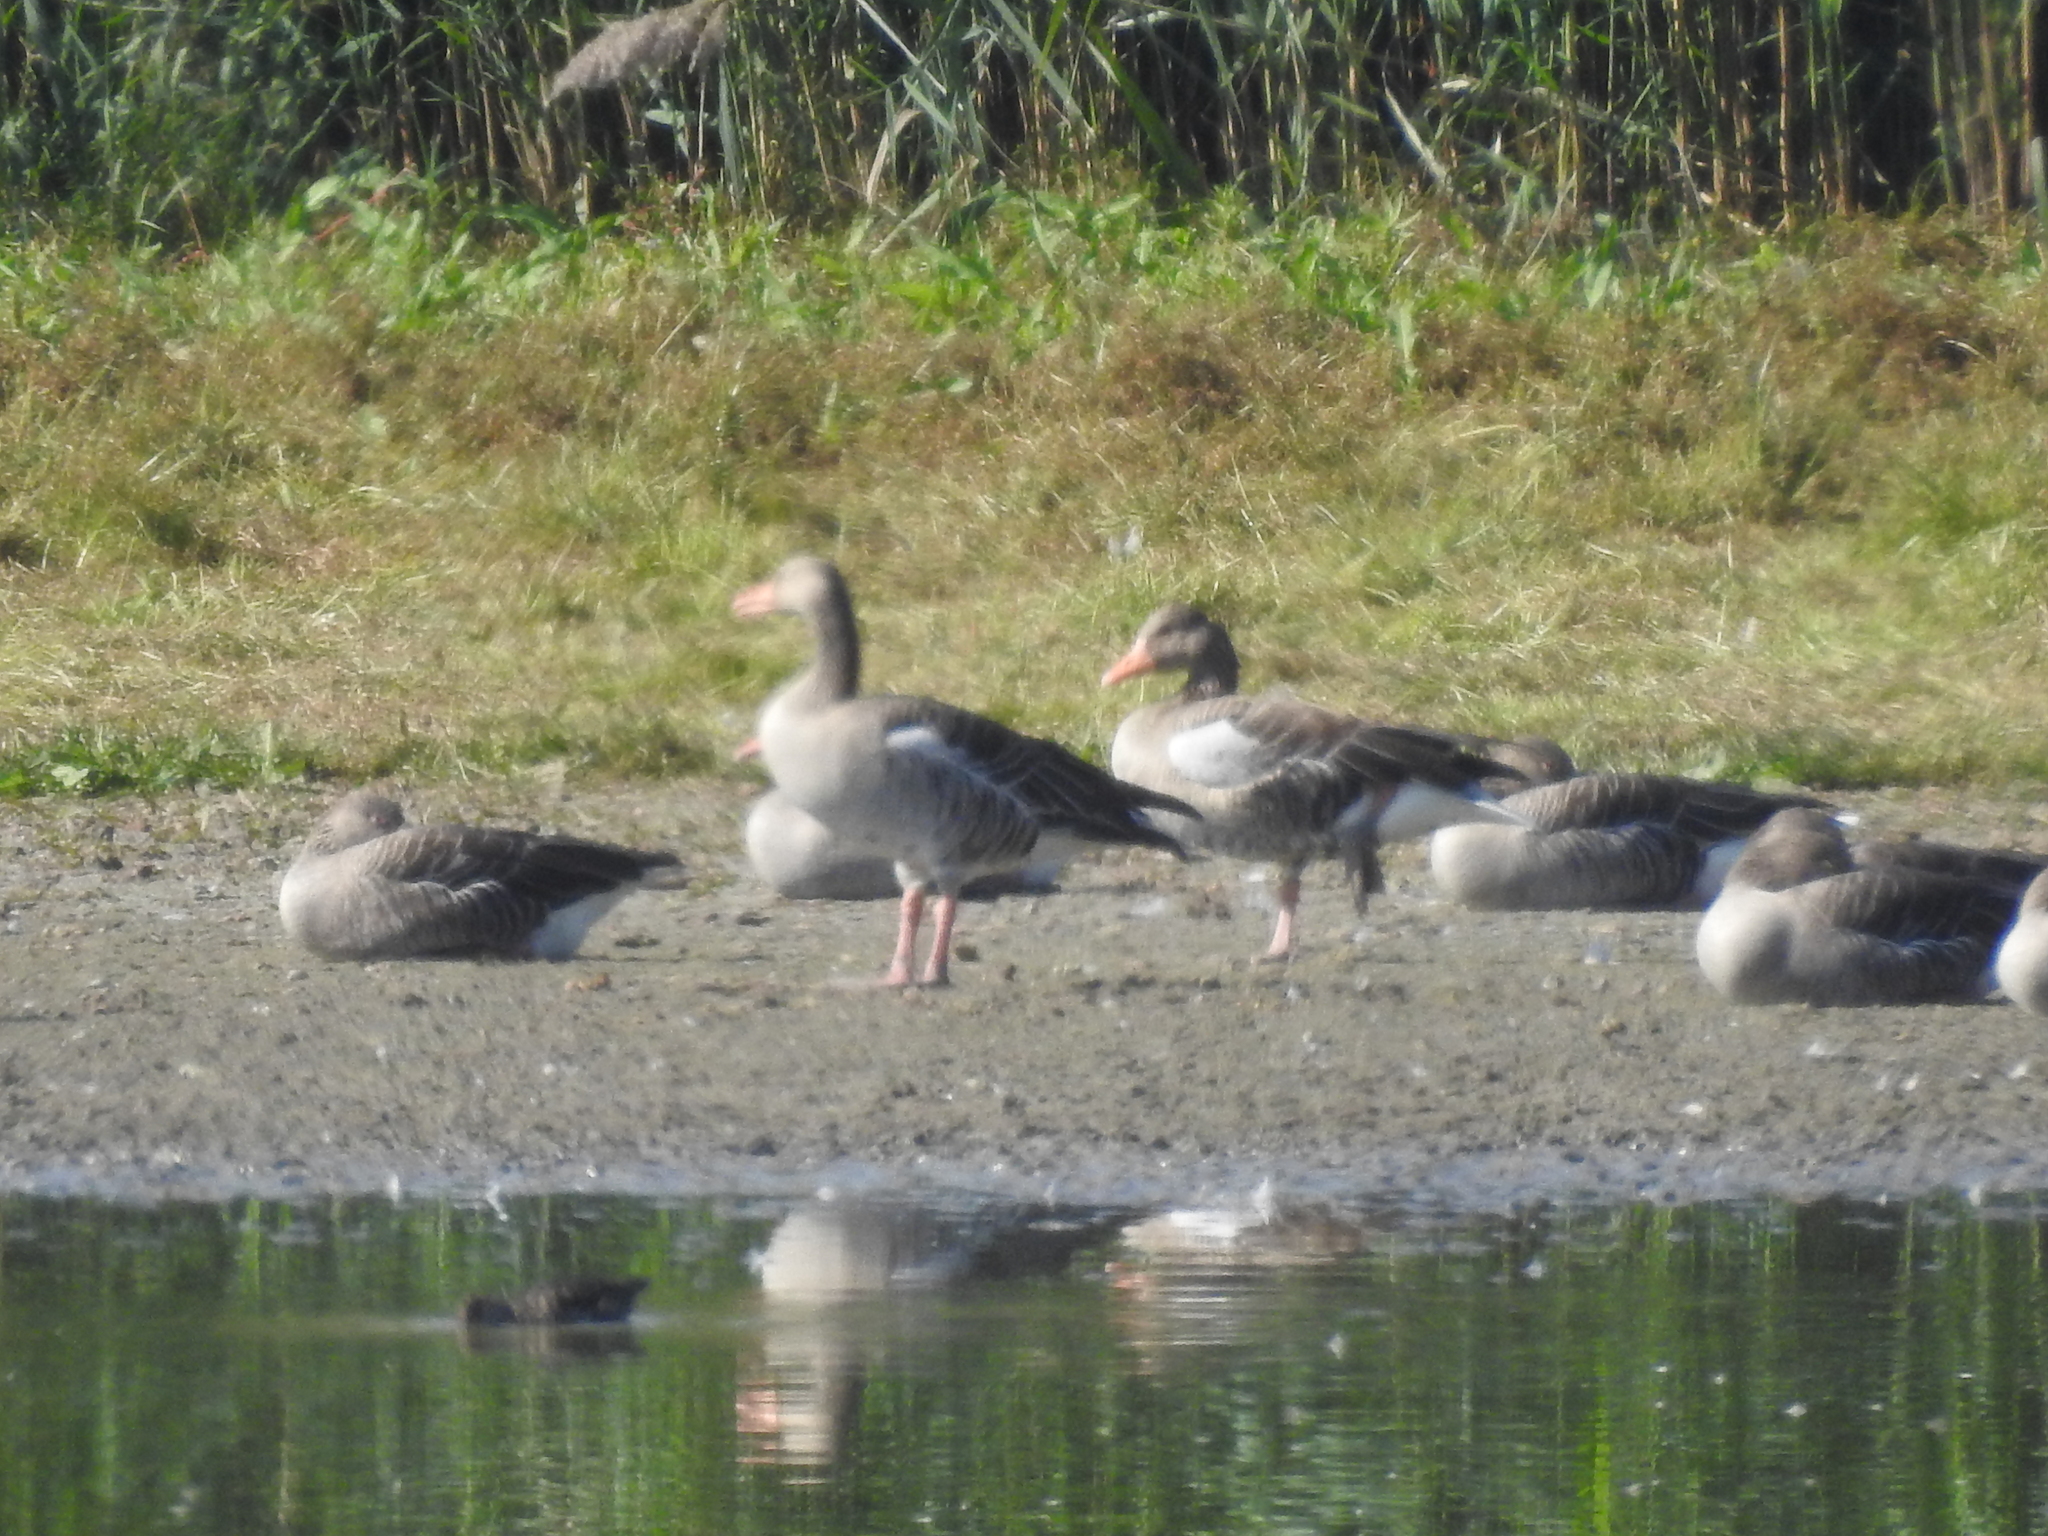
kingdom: Animalia
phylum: Chordata
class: Aves
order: Anseriformes
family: Anatidae
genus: Anser
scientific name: Anser anser
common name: Greylag goose
